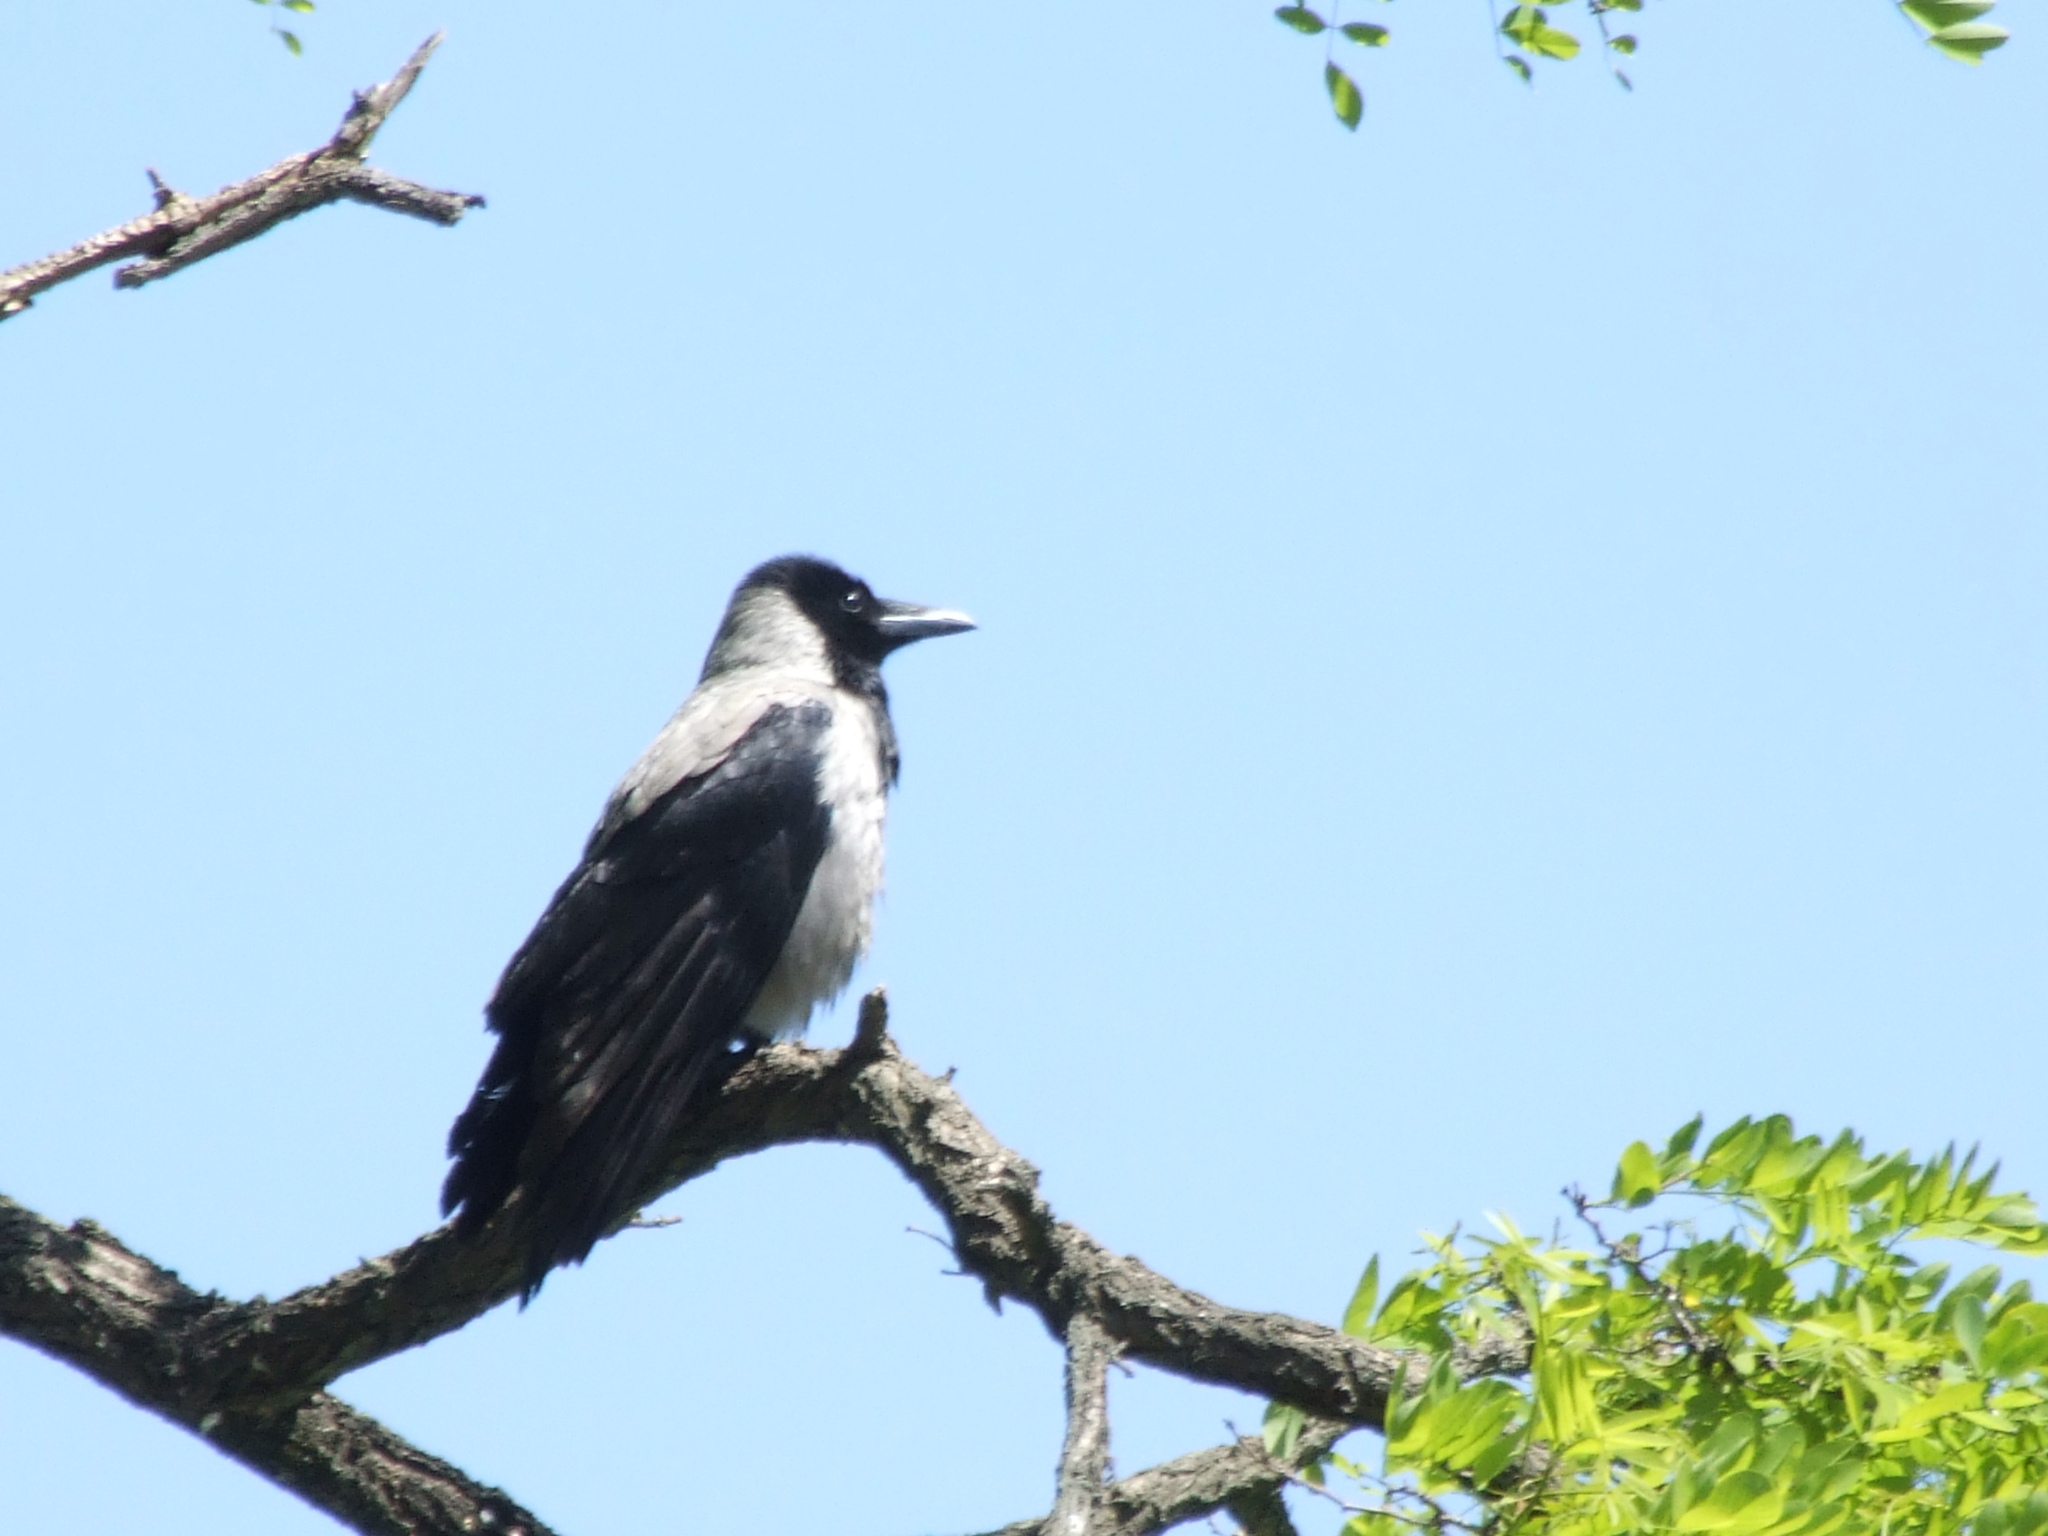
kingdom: Animalia
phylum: Chordata
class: Aves
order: Passeriformes
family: Corvidae
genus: Corvus
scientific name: Corvus cornix
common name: Hooded crow
